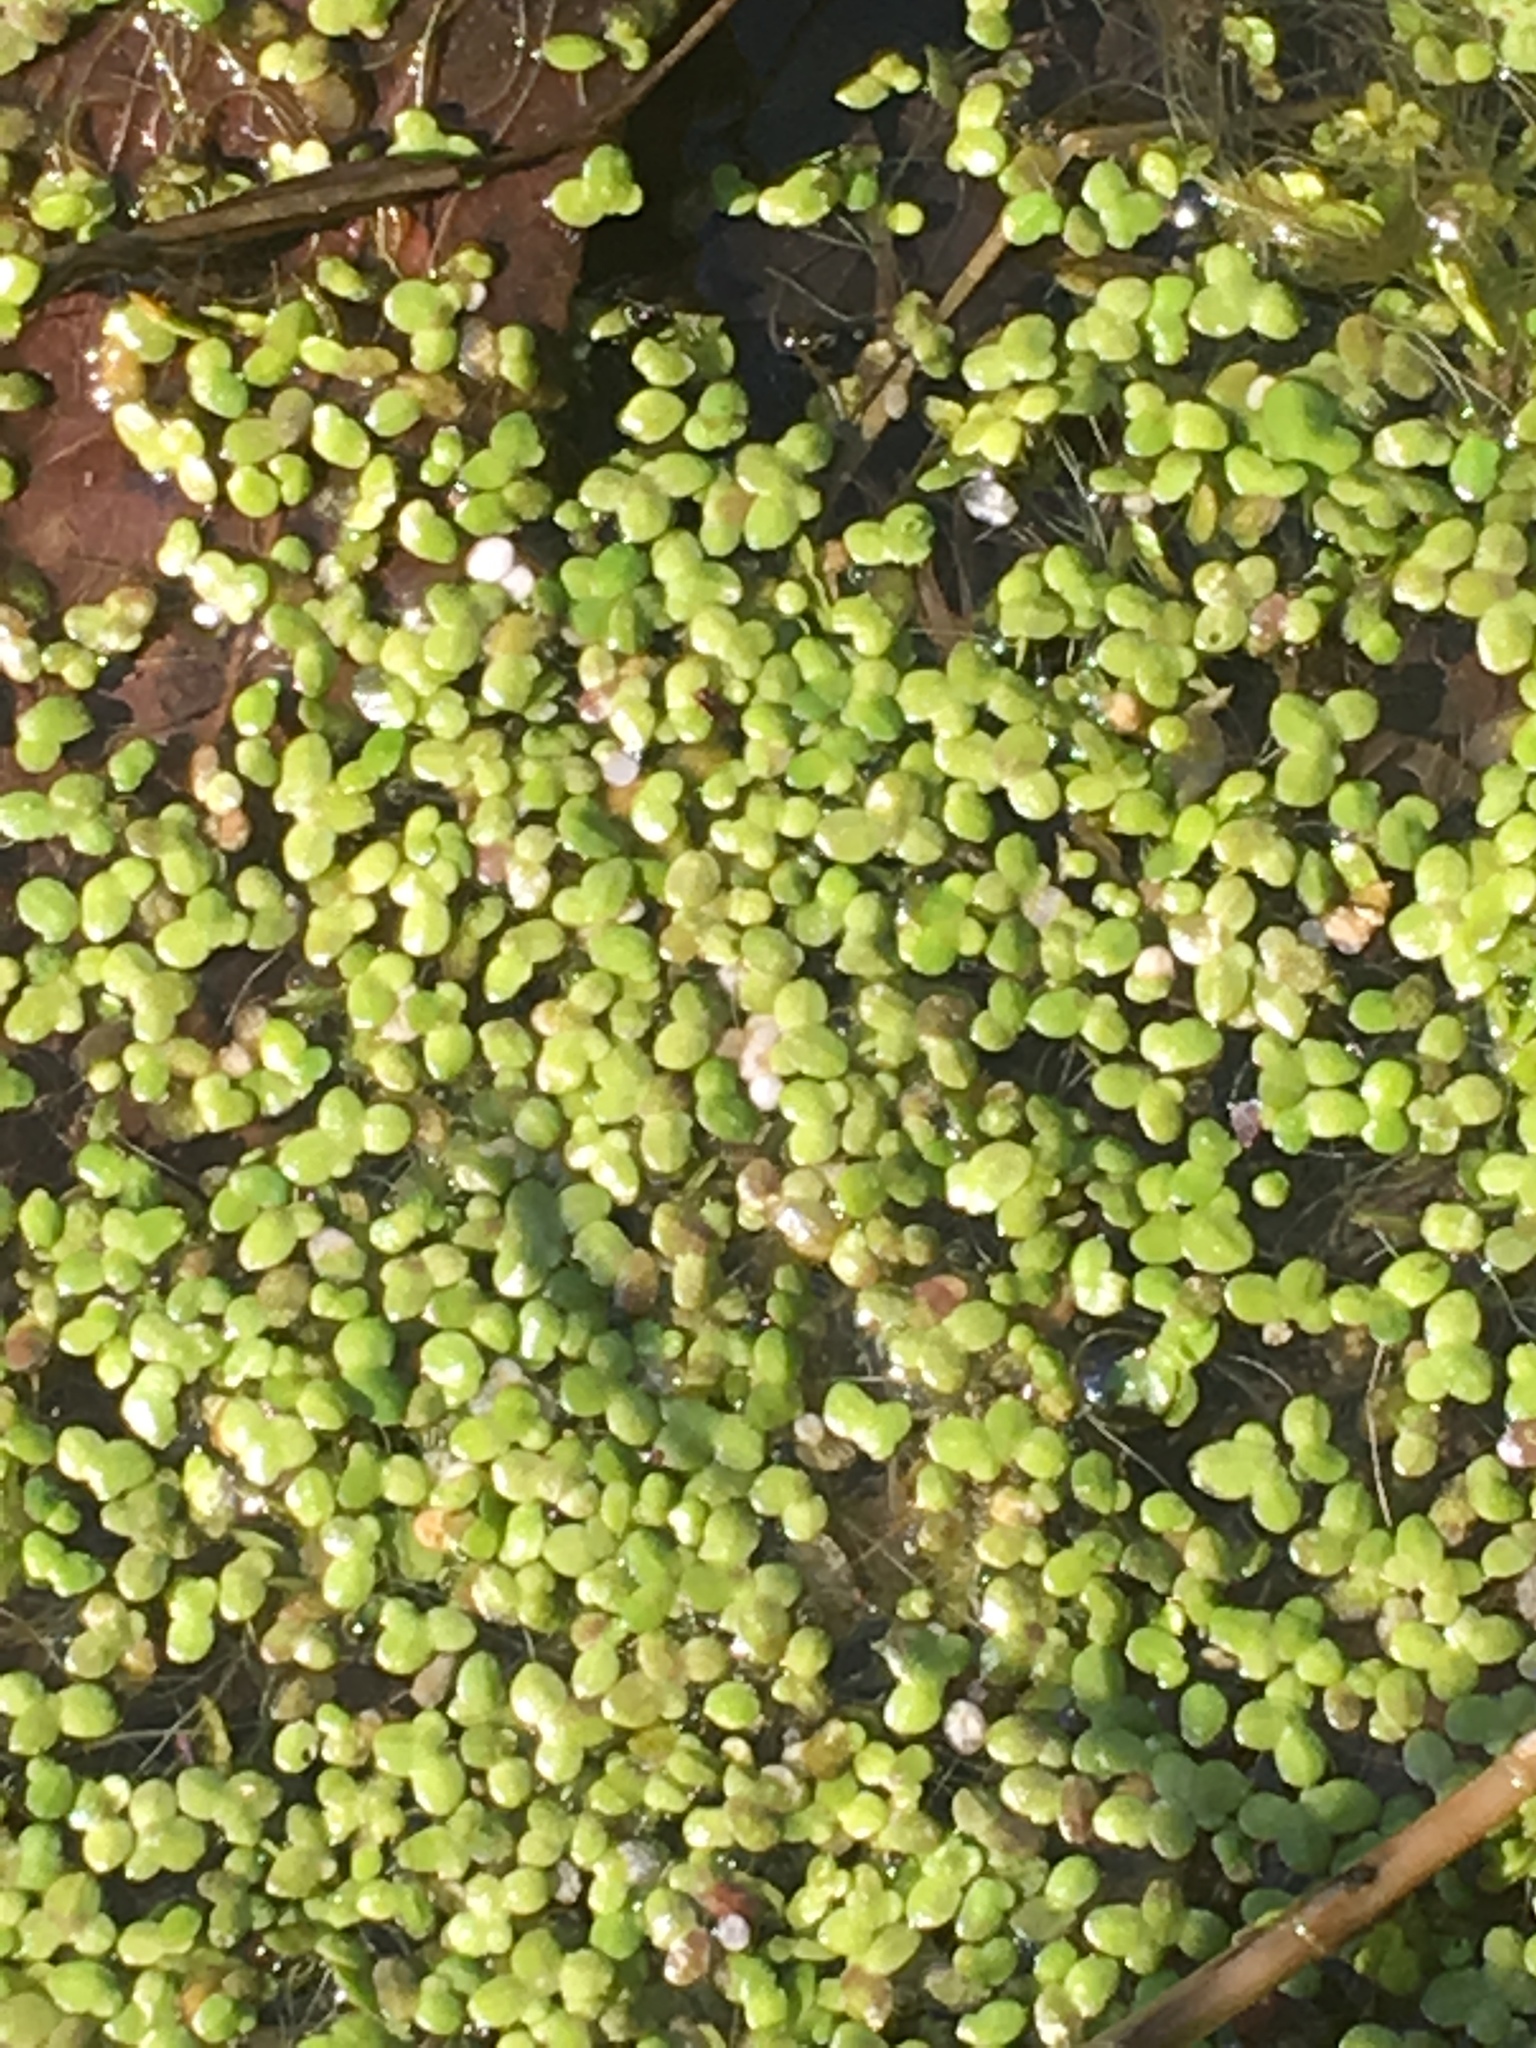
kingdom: Plantae
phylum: Tracheophyta
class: Liliopsida
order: Alismatales
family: Araceae
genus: Lemna
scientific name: Lemna minor
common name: Common duckweed
